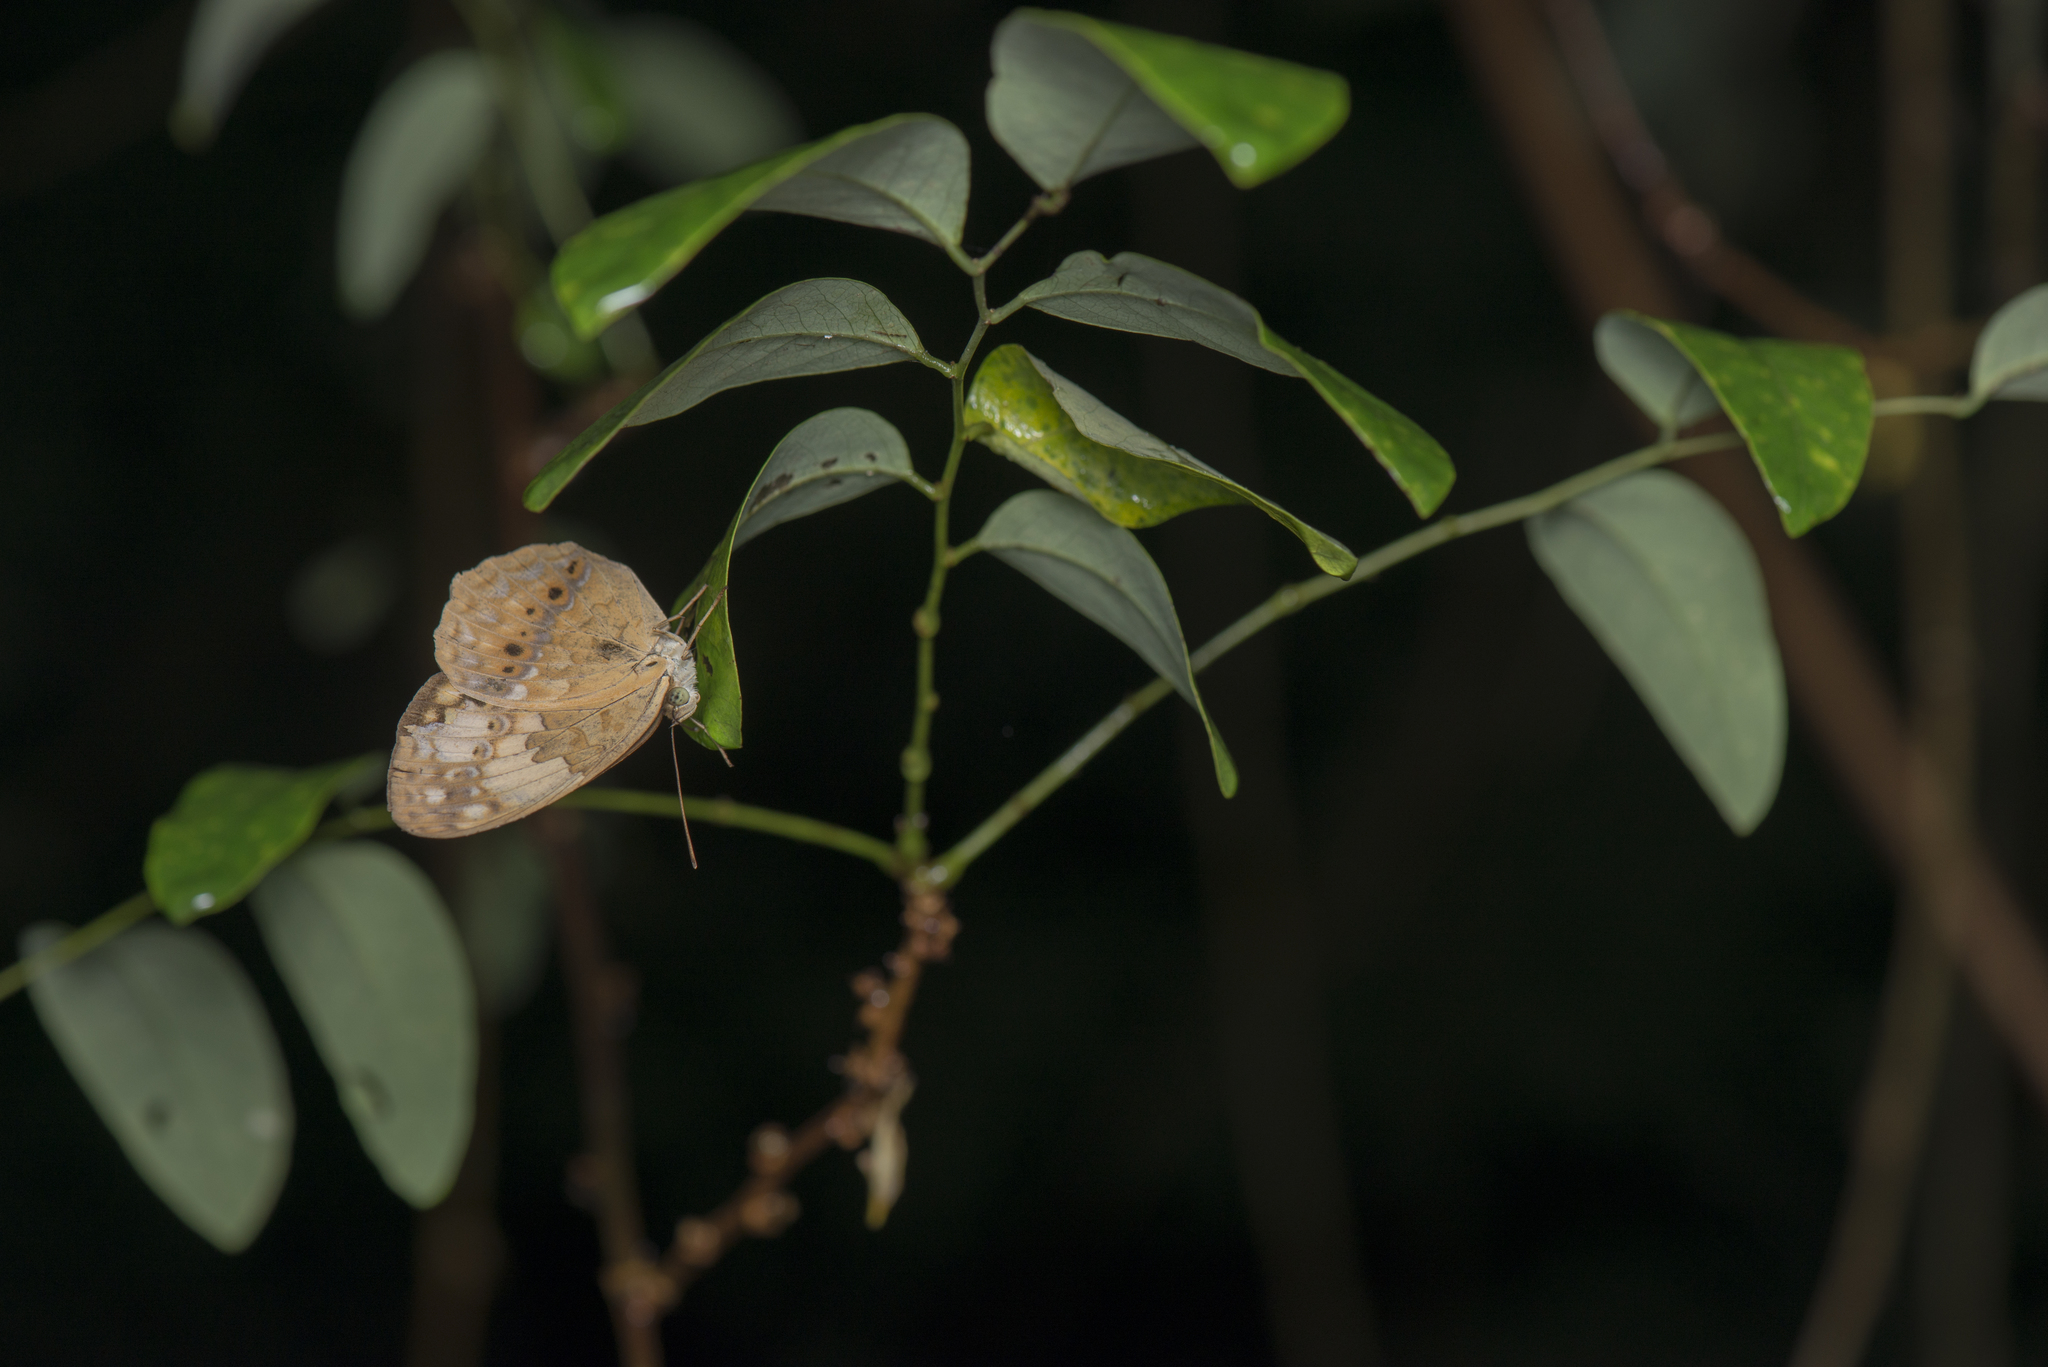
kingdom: Animalia
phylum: Arthropoda
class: Insecta
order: Lepidoptera
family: Nymphalidae
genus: Cupha
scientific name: Cupha erymanthis
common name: Rustic
